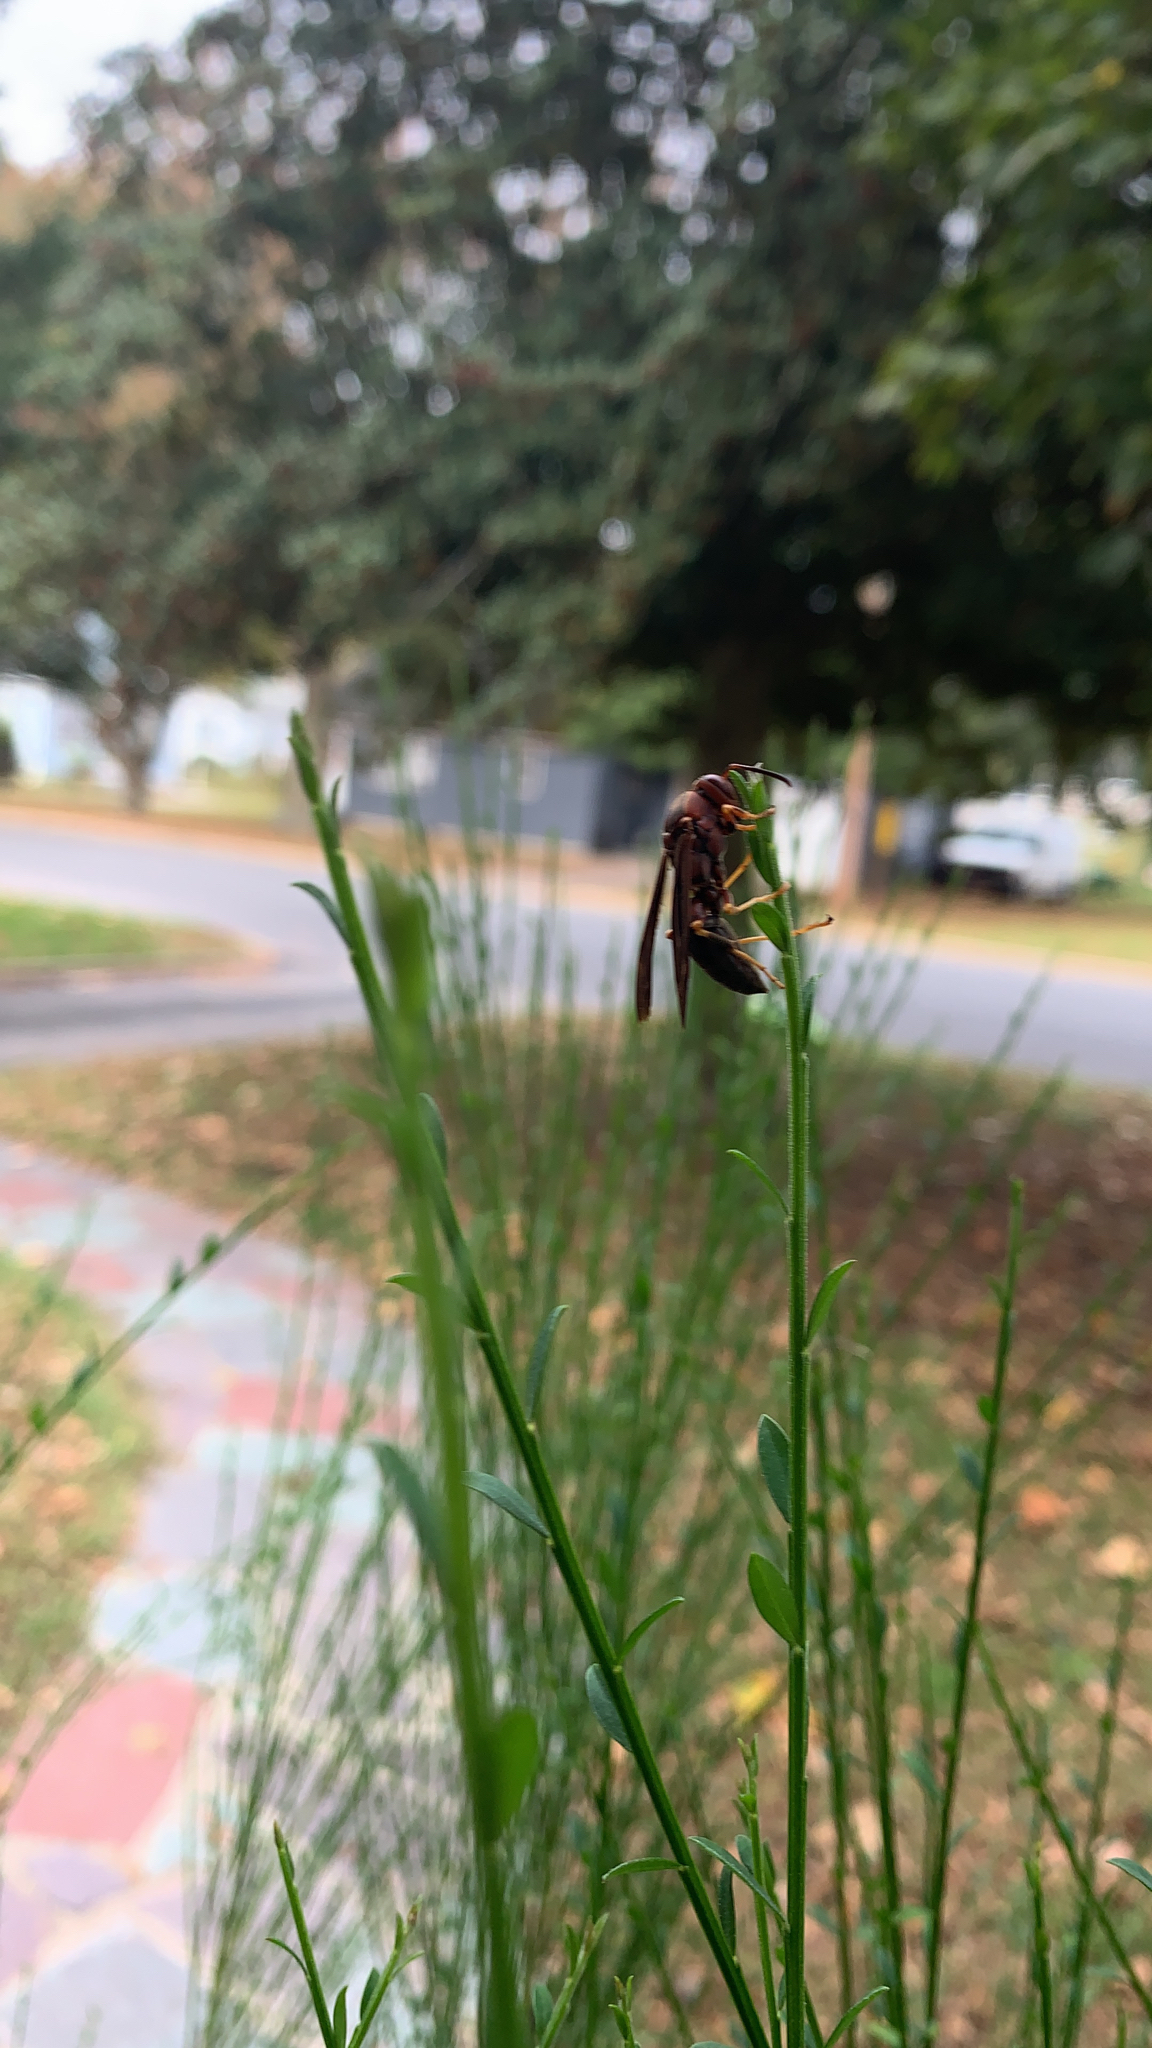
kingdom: Animalia
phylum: Arthropoda
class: Insecta
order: Hymenoptera
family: Eumenidae
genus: Polistes
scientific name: Polistes metricus
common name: Metric paper wasp
